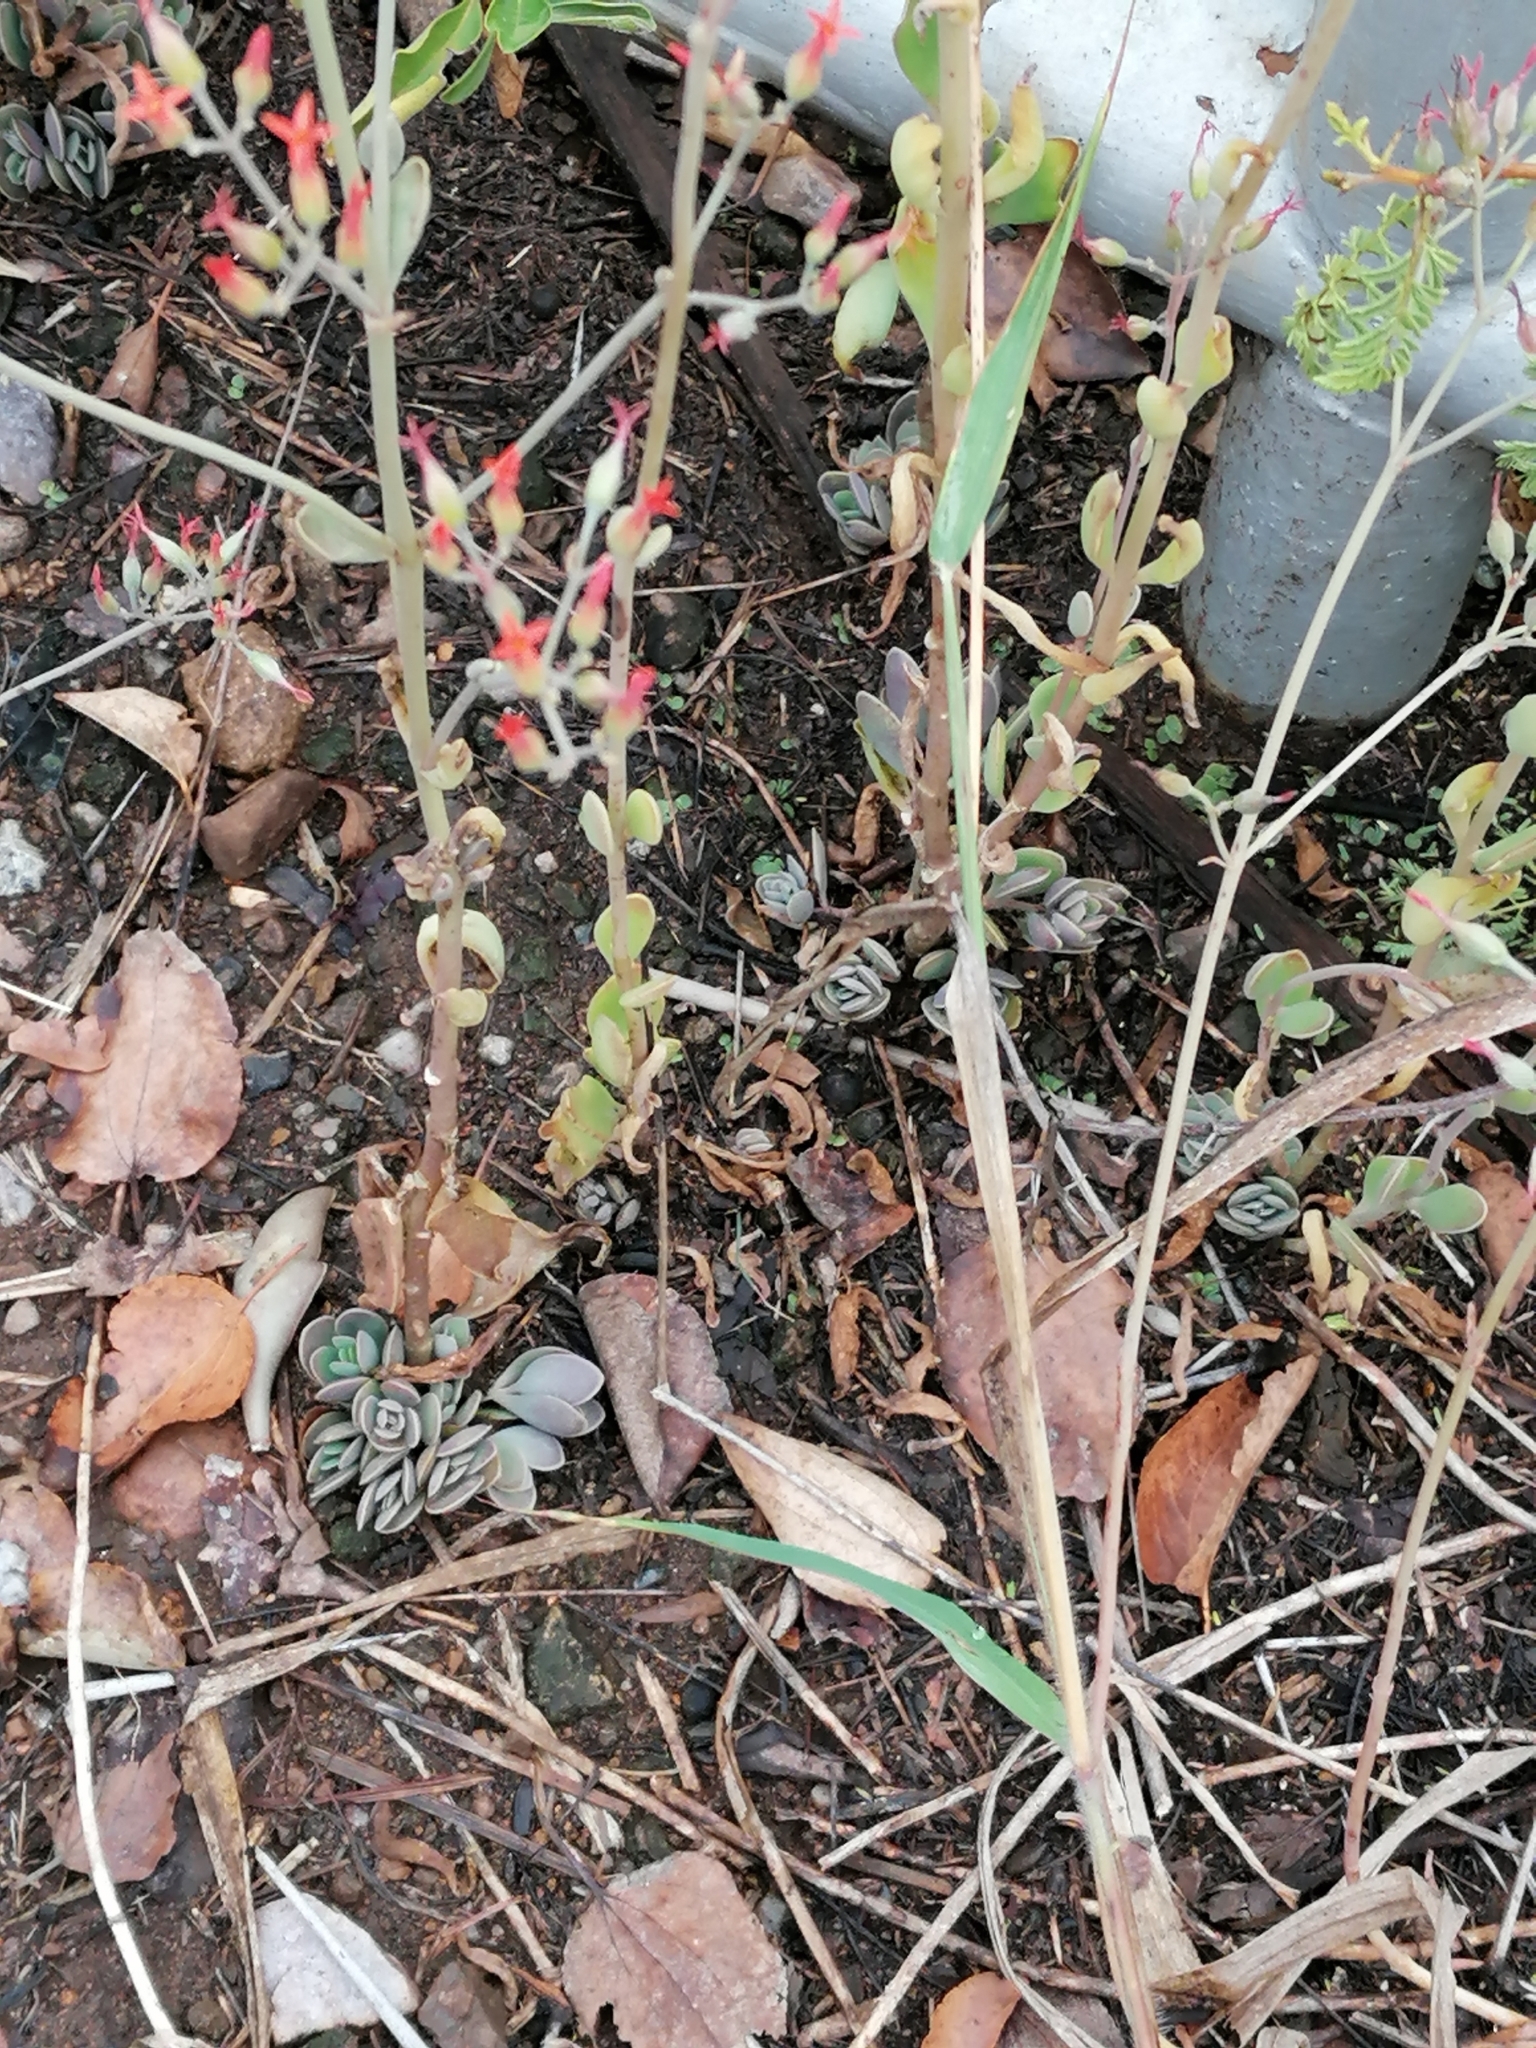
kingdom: Plantae
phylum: Tracheophyta
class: Magnoliopsida
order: Saxifragales
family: Crassulaceae
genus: Kalanchoe
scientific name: Kalanchoe rotundifolia
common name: Common kalanchoe
